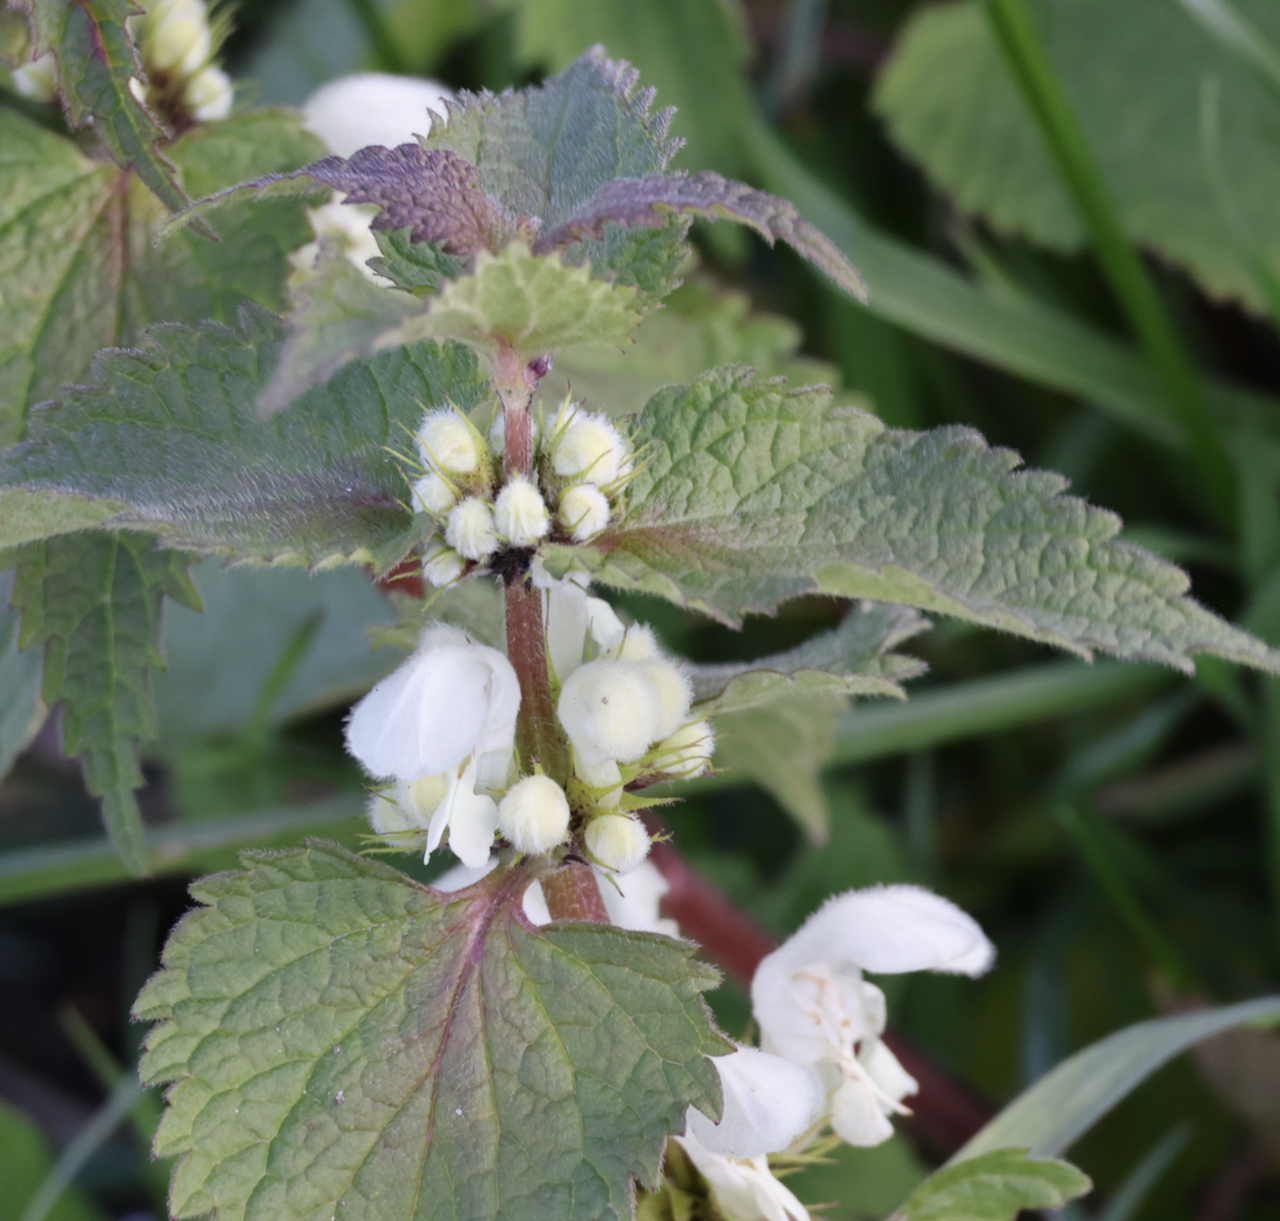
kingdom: Plantae
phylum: Tracheophyta
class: Magnoliopsida
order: Lamiales
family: Lamiaceae
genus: Lamium
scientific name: Lamium album
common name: White dead-nettle
